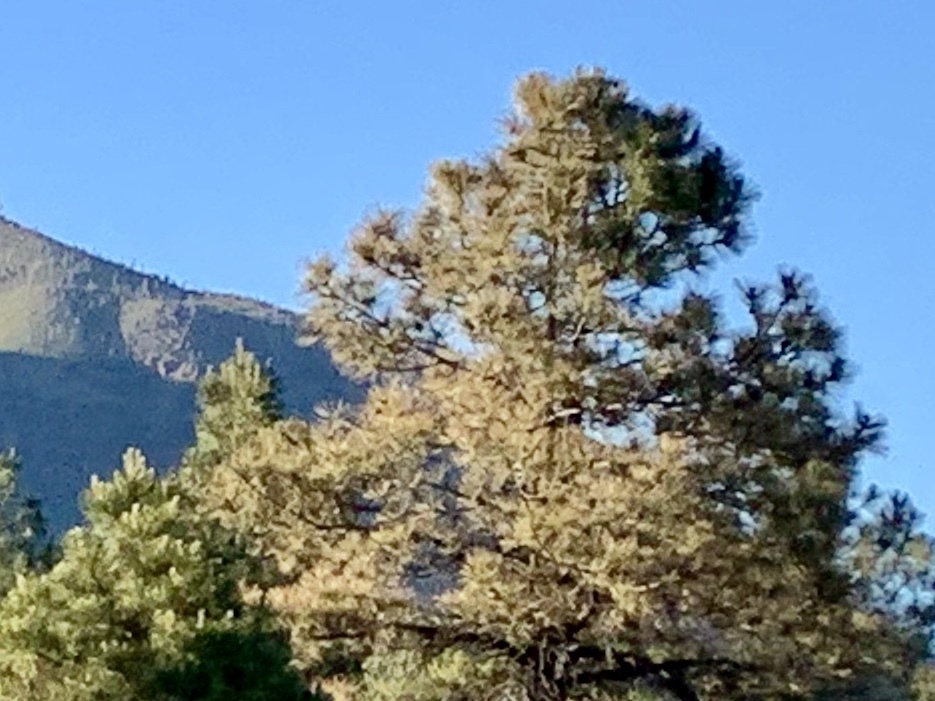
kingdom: Plantae
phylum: Tracheophyta
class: Pinopsida
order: Pinales
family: Pinaceae
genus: Pinus
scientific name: Pinus ponderosa
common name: Western yellow-pine
